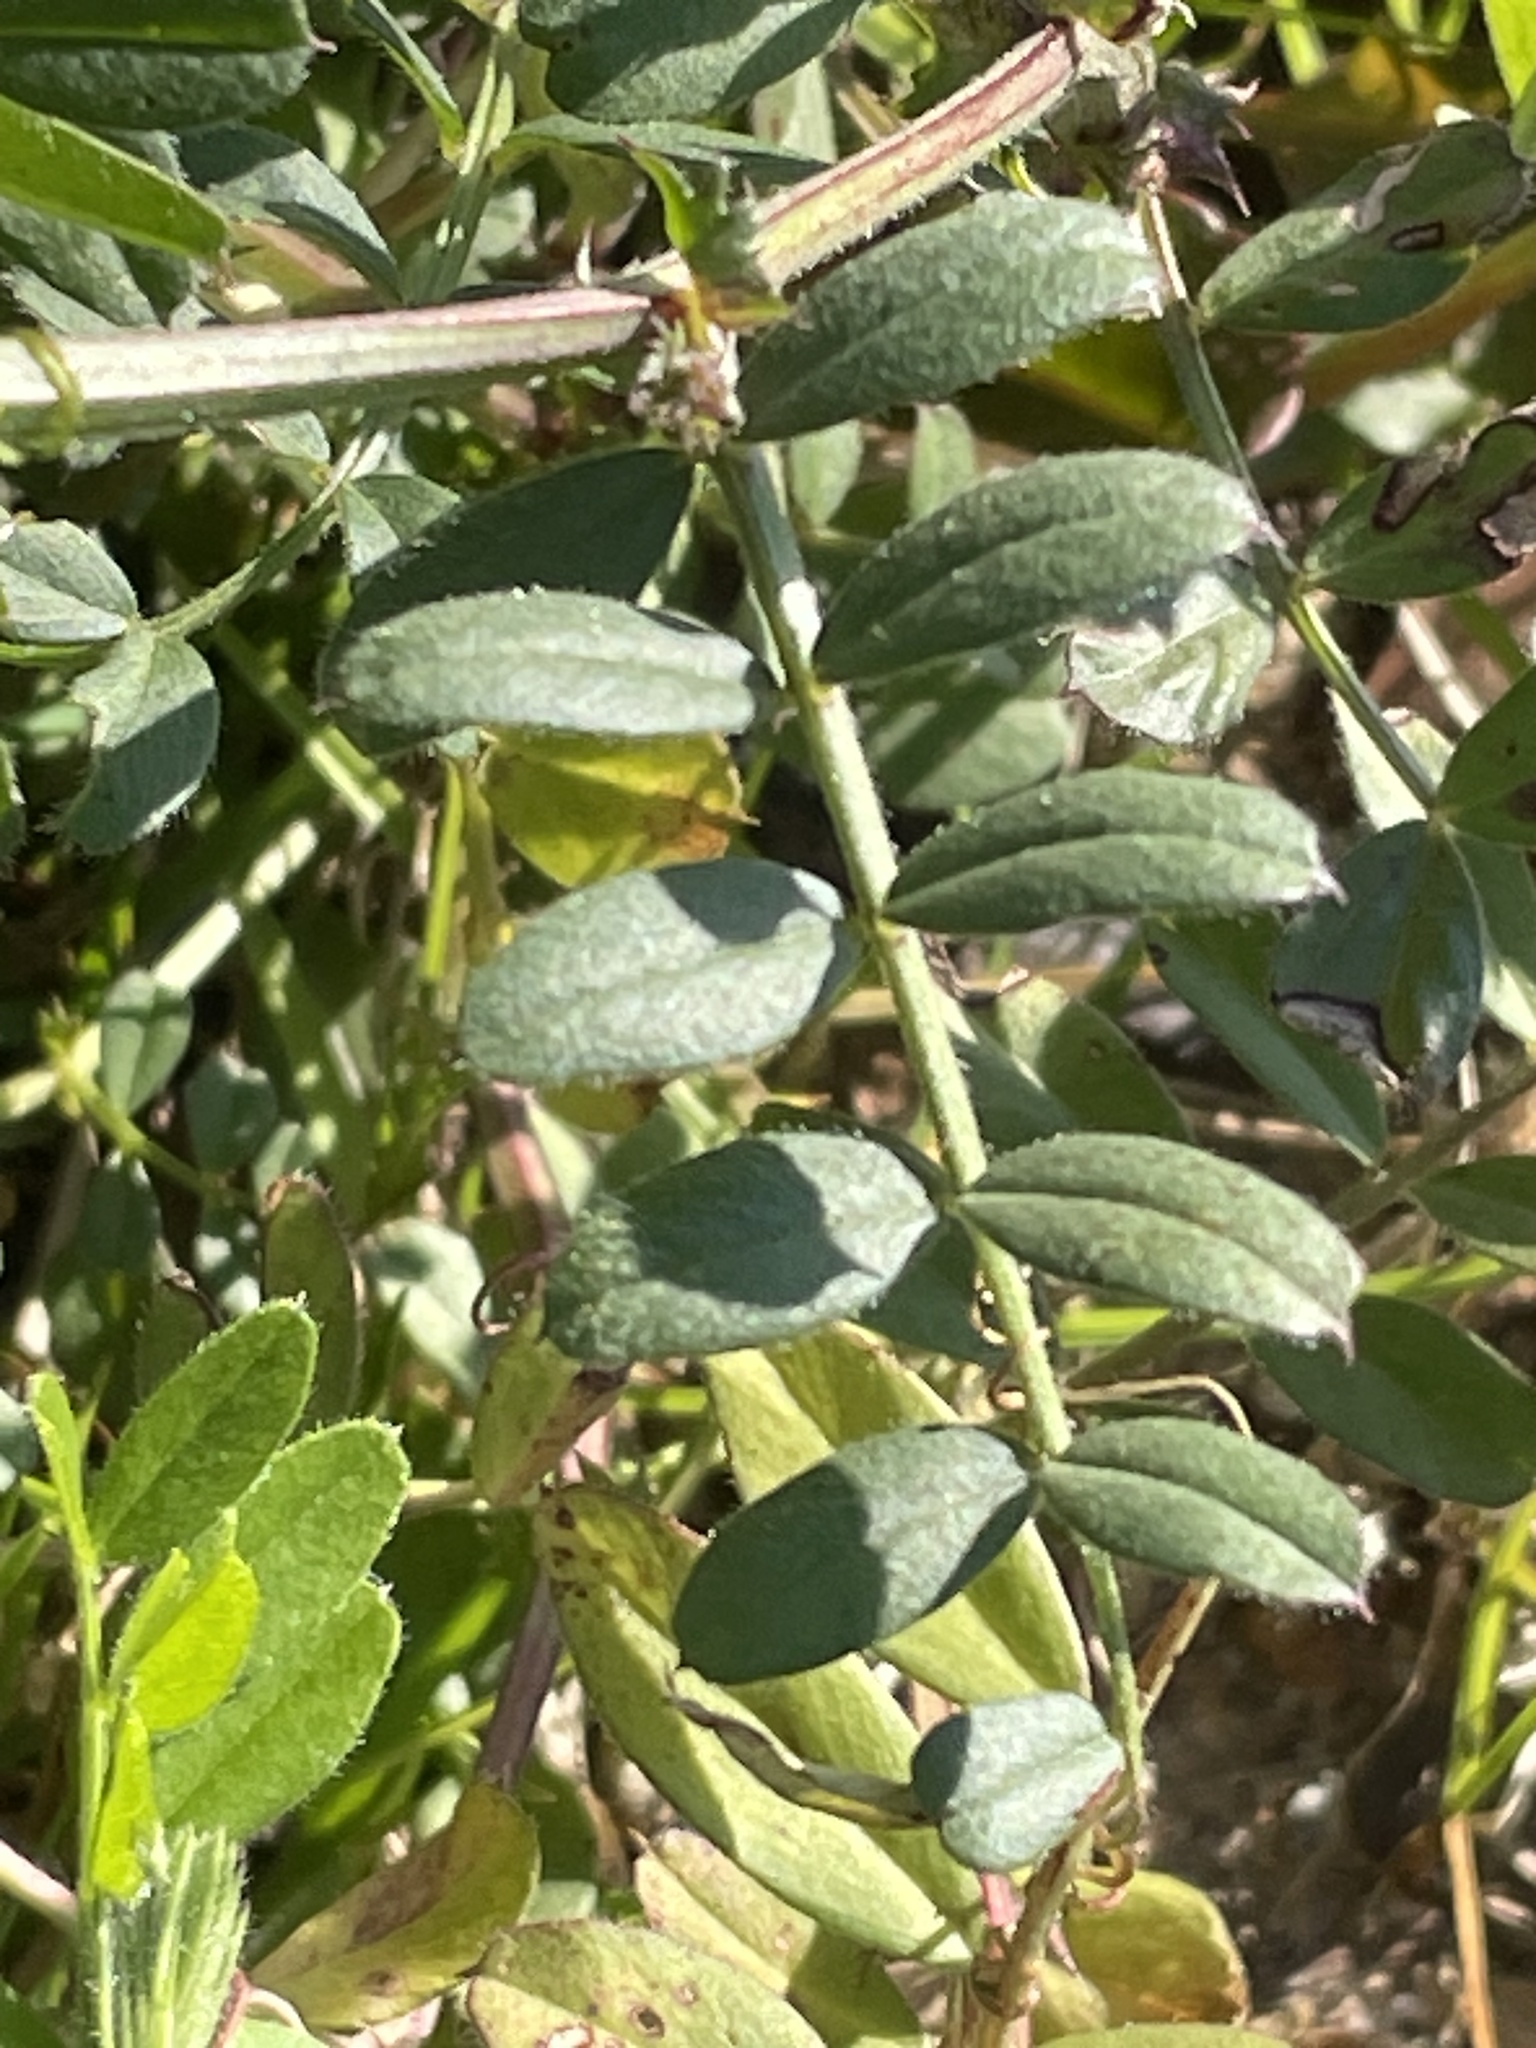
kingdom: Plantae
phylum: Tracheophyta
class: Magnoliopsida
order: Fabales
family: Fabaceae
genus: Vicia
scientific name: Vicia sativa
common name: Garden vetch
